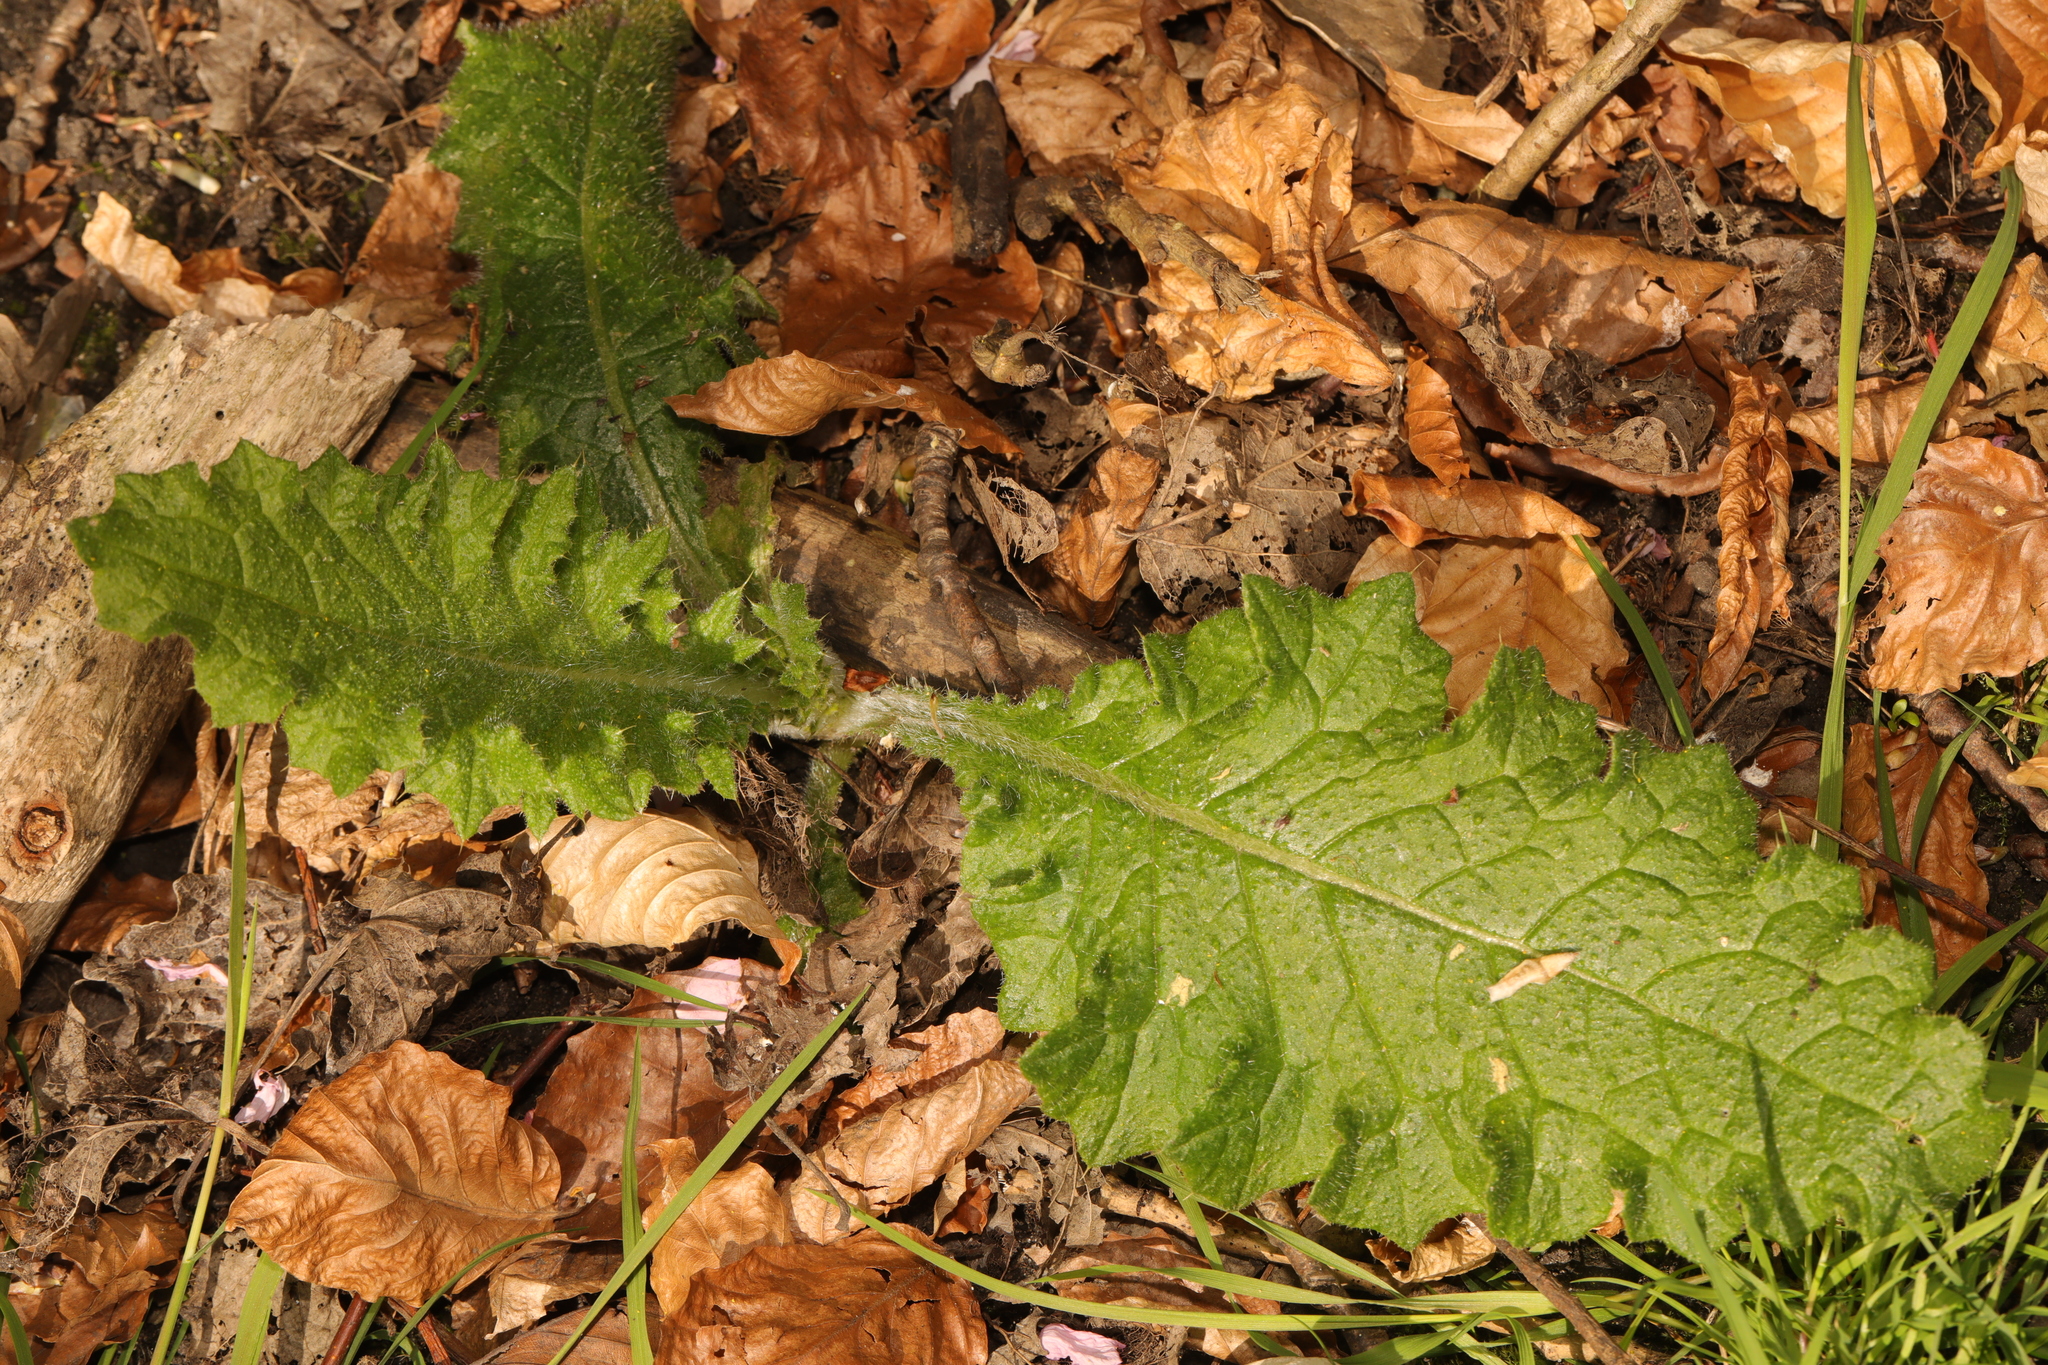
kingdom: Plantae
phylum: Tracheophyta
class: Magnoliopsida
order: Asterales
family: Asteraceae
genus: Cirsium
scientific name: Cirsium vulgare
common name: Bull thistle
